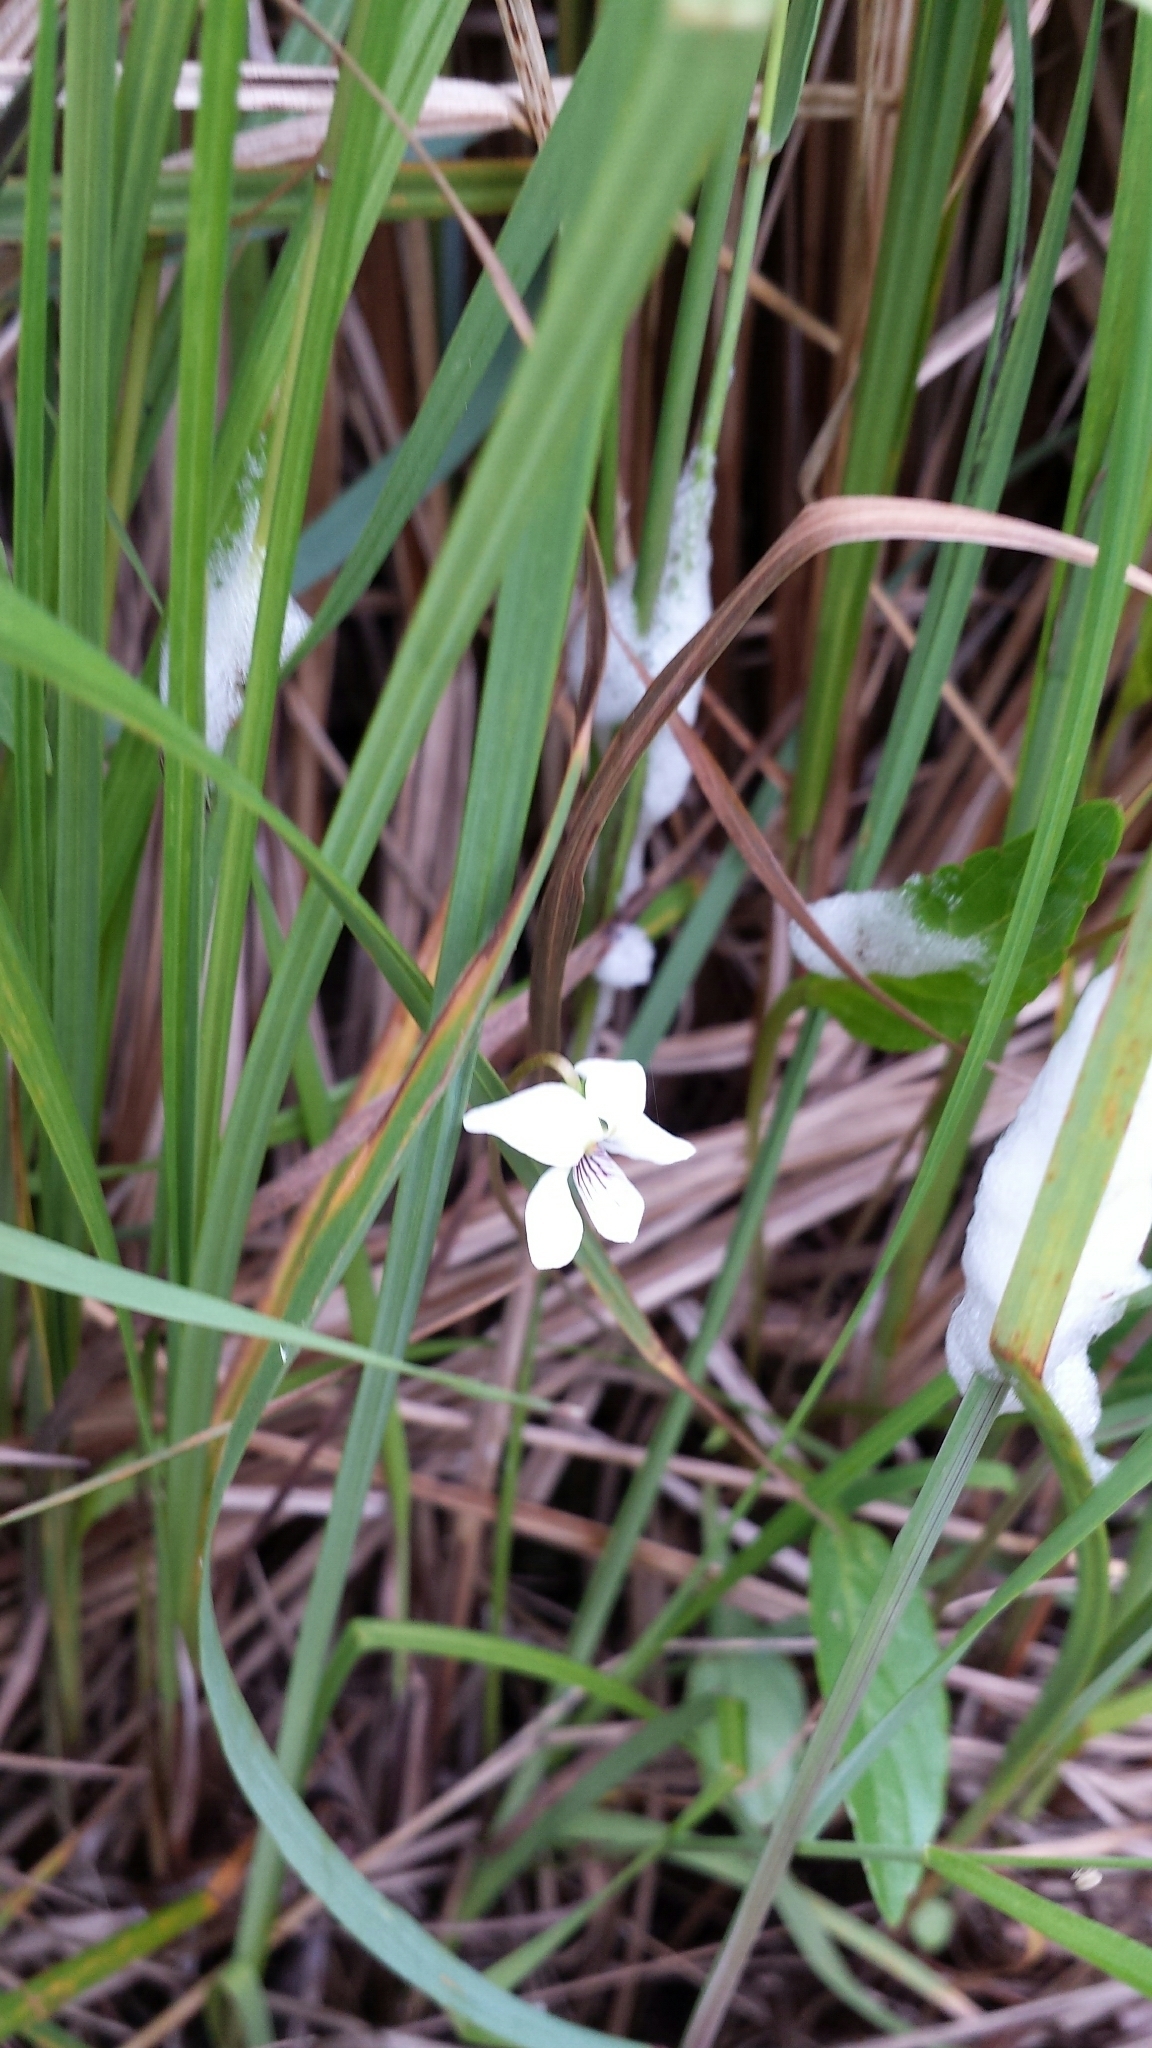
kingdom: Plantae
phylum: Tracheophyta
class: Magnoliopsida
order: Malpighiales
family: Violaceae
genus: Viola
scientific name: Viola lanceolata
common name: Bog white violet
